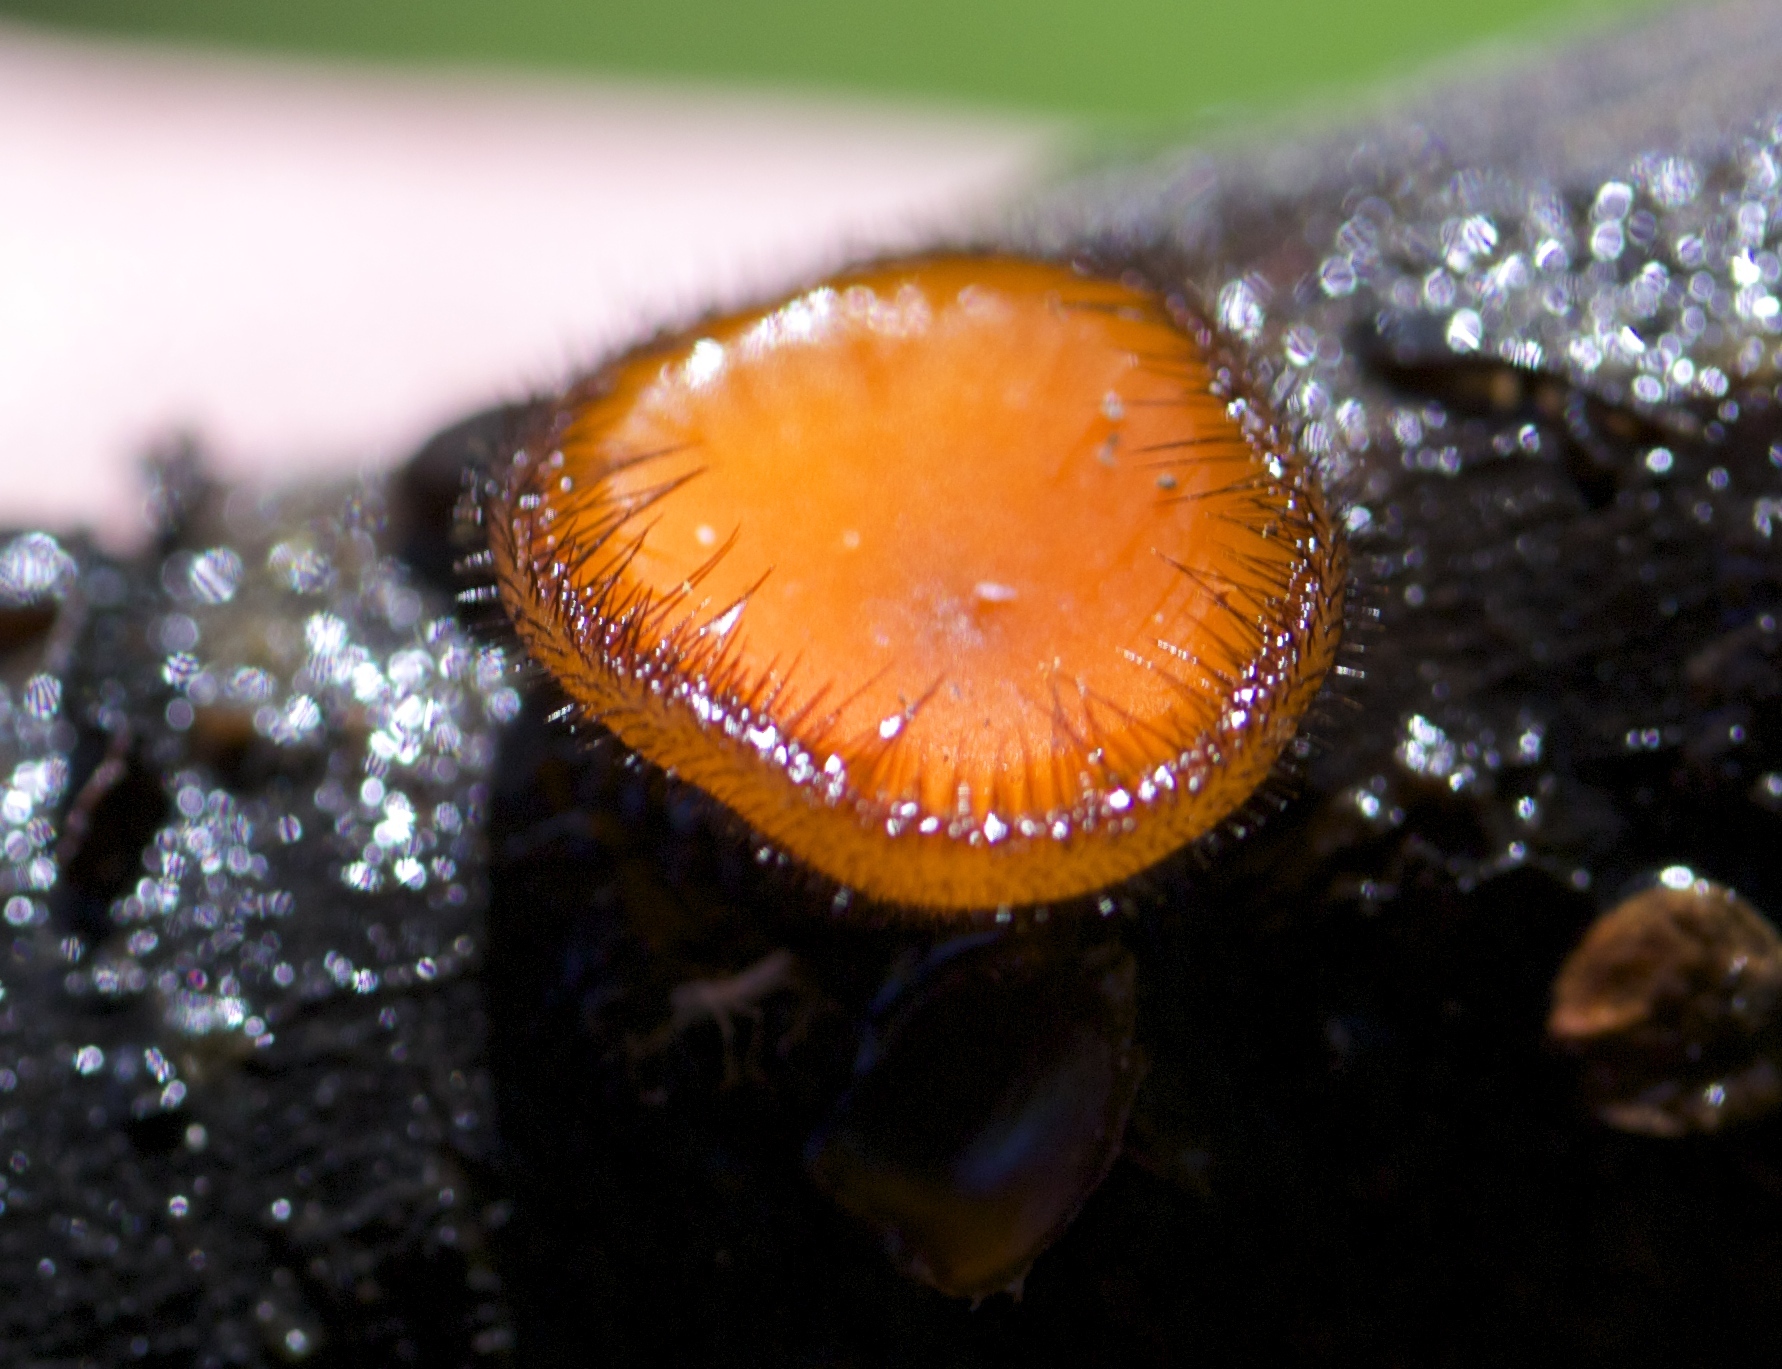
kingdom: Fungi
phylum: Ascomycota
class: Pezizomycetes
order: Pezizales
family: Pyronemataceae
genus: Scutellinia
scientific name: Scutellinia scutellata
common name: Common eyelash
